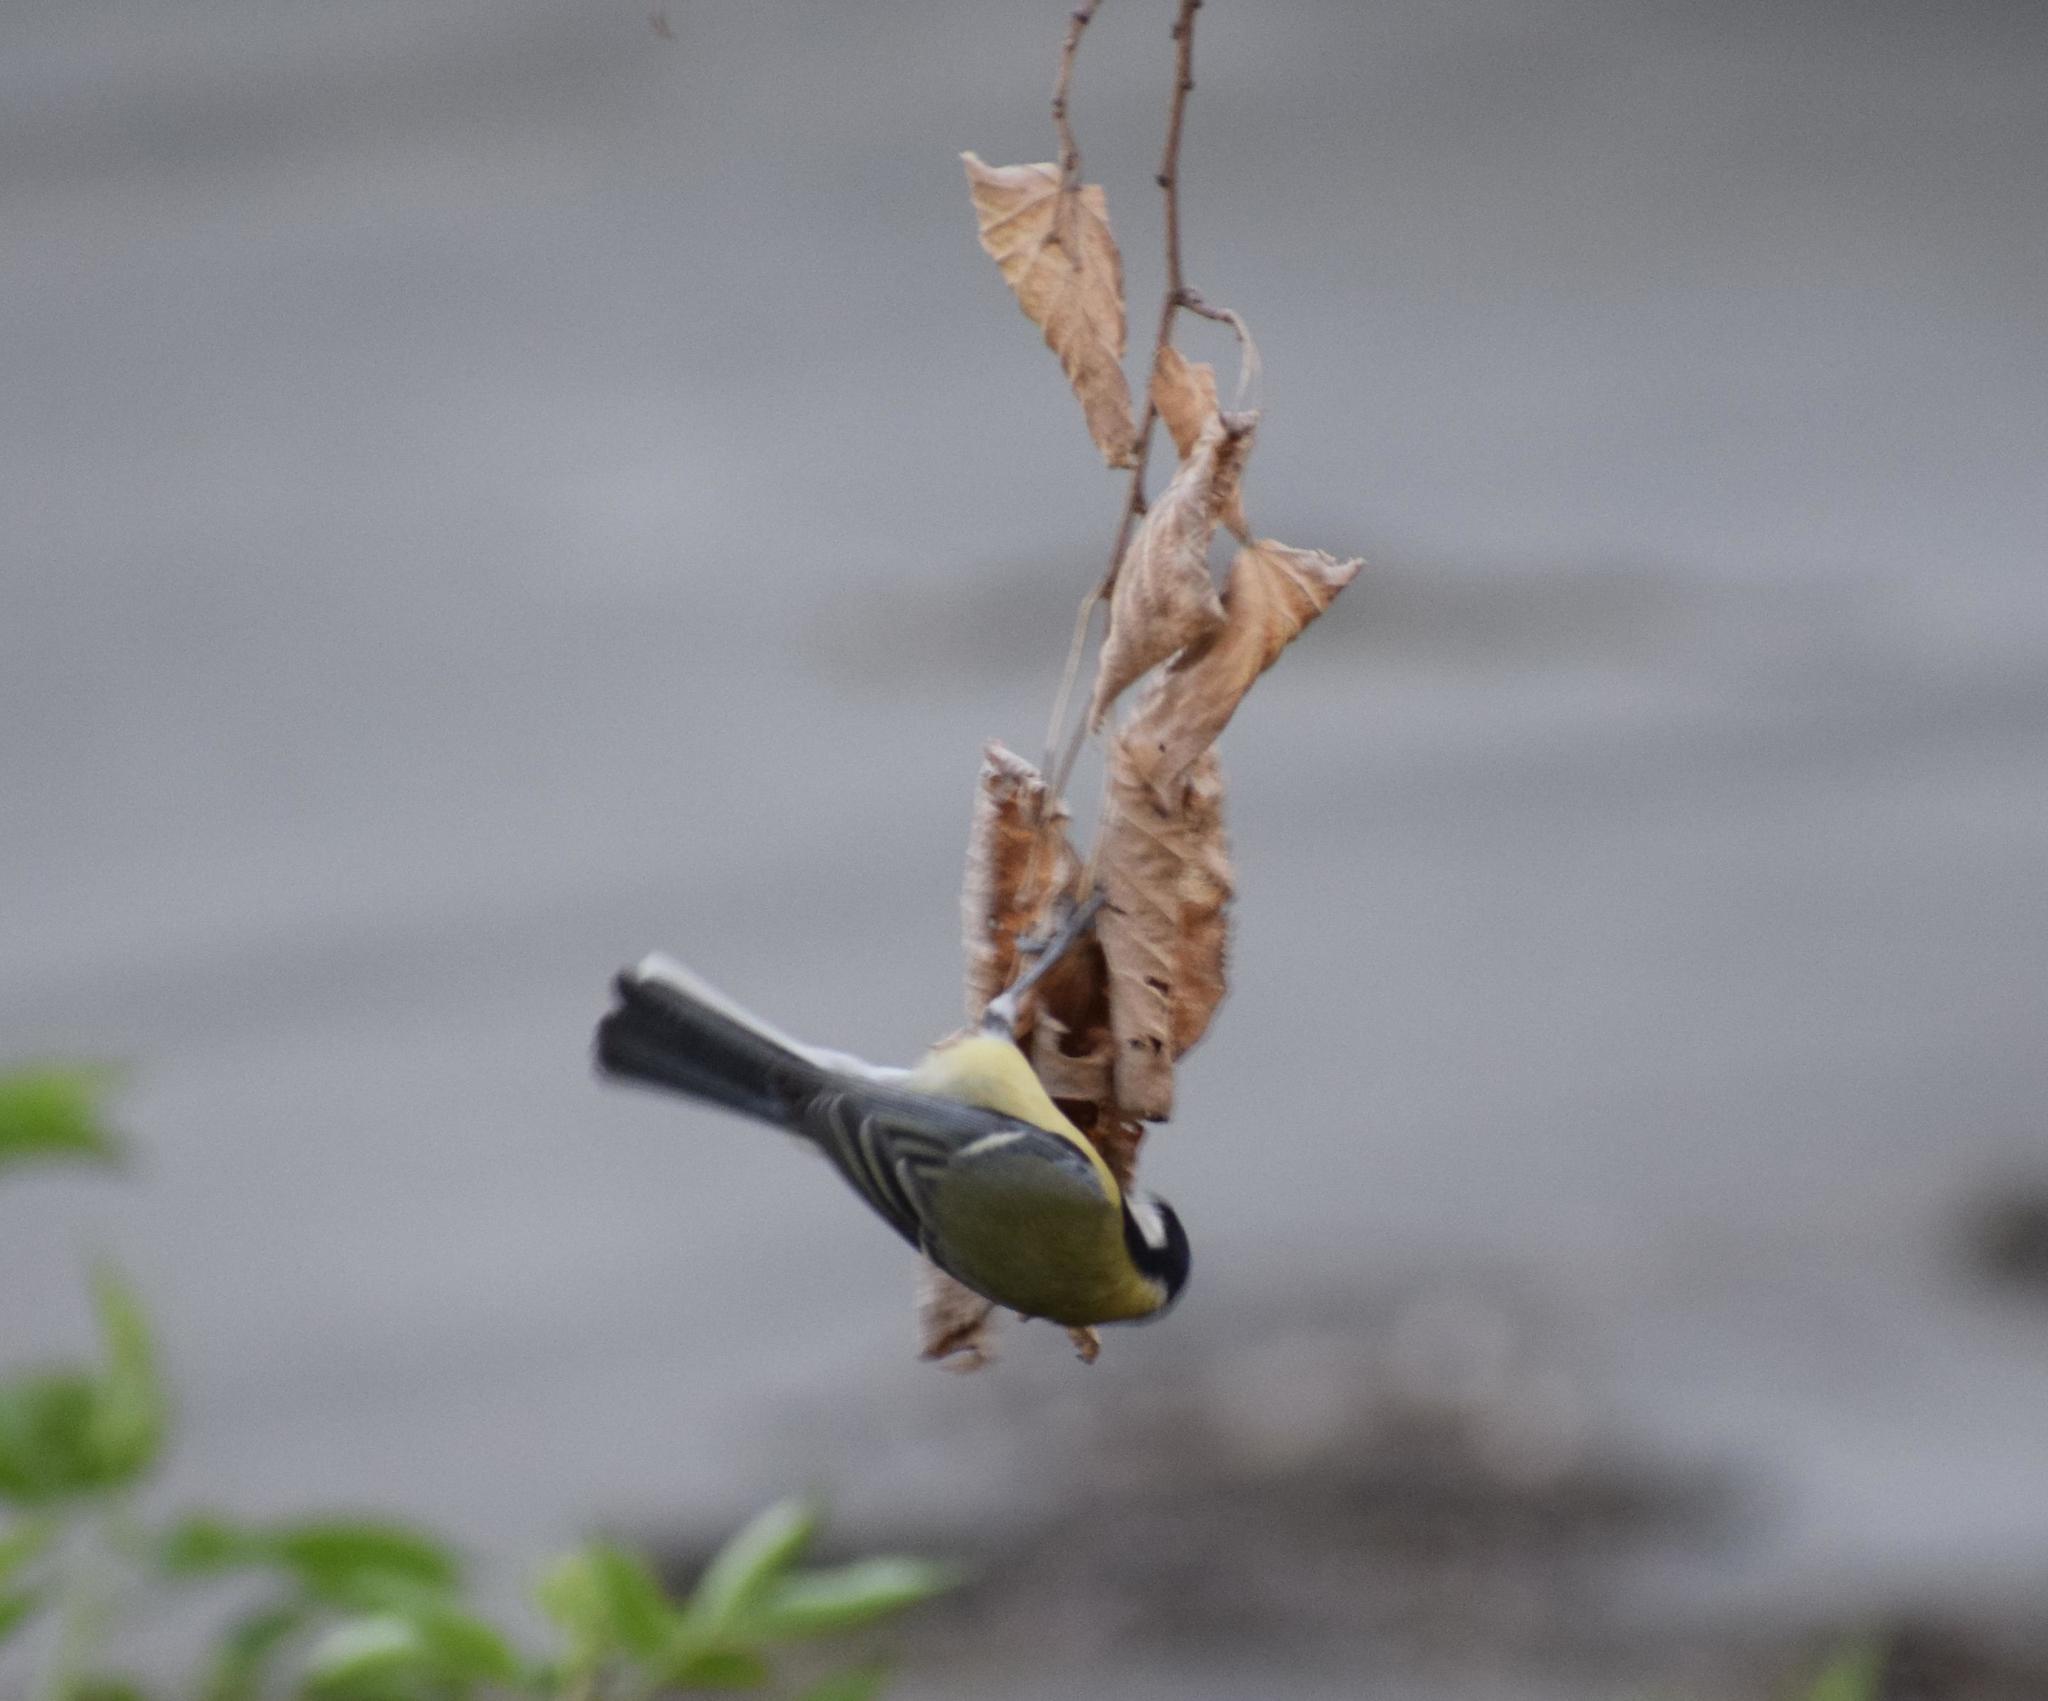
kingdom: Animalia
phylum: Chordata
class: Aves
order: Passeriformes
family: Paridae
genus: Parus
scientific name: Parus major
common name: Great tit
